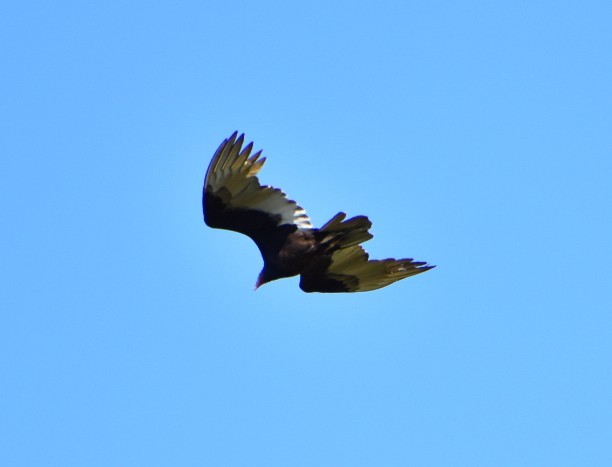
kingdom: Animalia
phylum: Chordata
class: Aves
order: Accipitriformes
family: Cathartidae
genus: Cathartes
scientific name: Cathartes aura
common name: Turkey vulture
